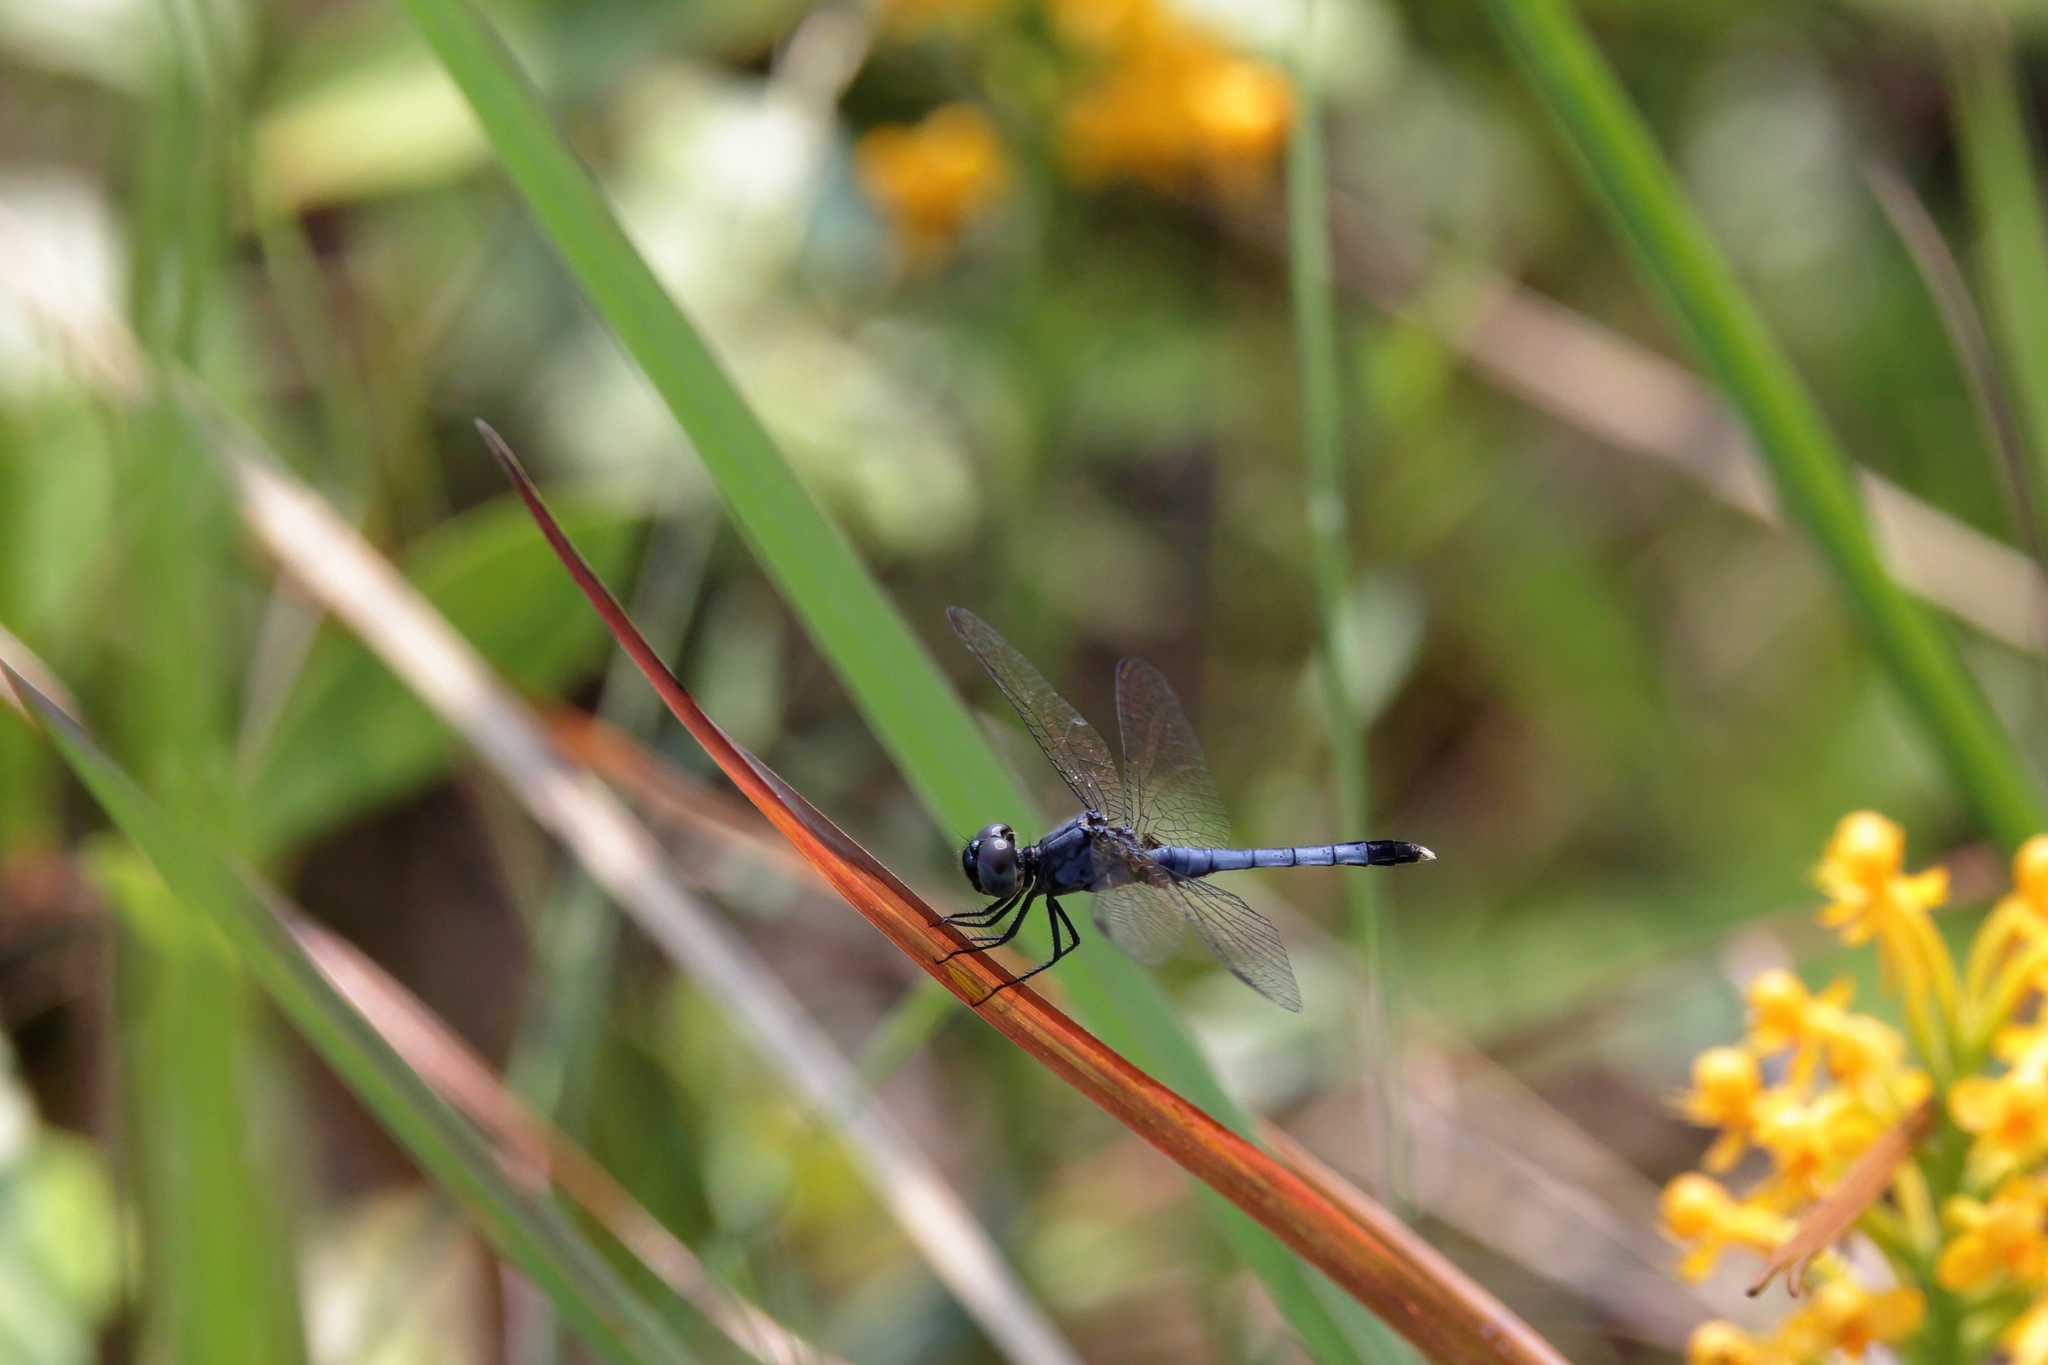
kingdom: Animalia
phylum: Arthropoda
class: Insecta
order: Odonata
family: Libellulidae
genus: Erythrodiplax
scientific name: Erythrodiplax minuscula
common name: Little blue dragonlet
